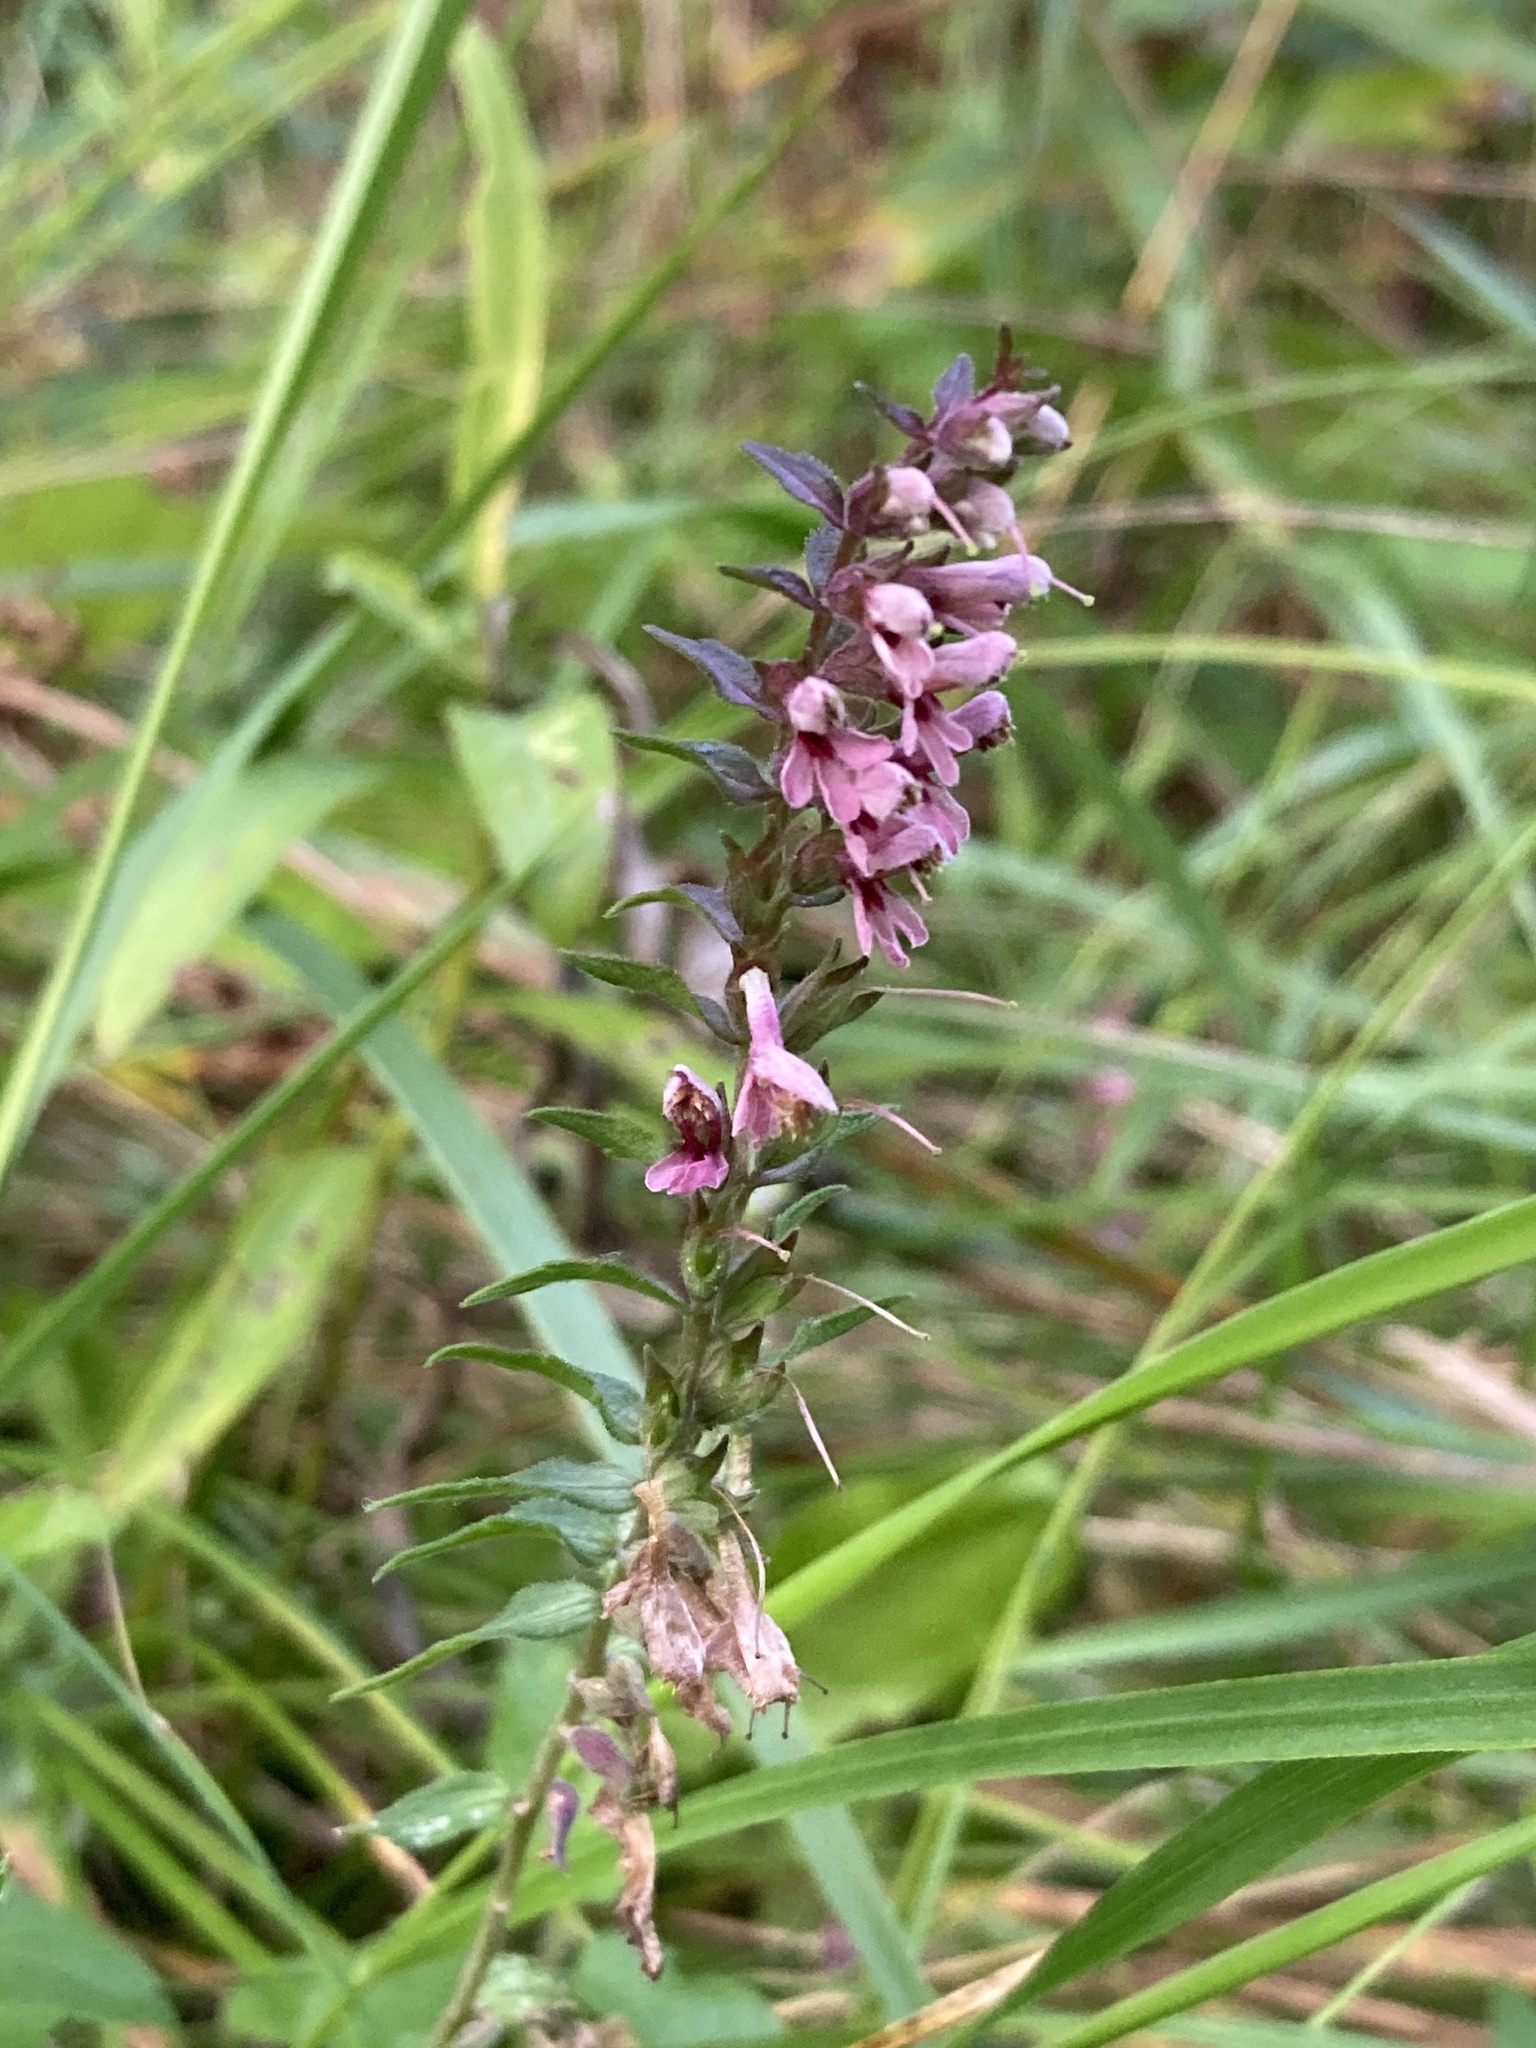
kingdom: Plantae
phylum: Tracheophyta
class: Magnoliopsida
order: Lamiales
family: Orobanchaceae
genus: Odontites
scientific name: Odontites vulgaris
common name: Broomrape
